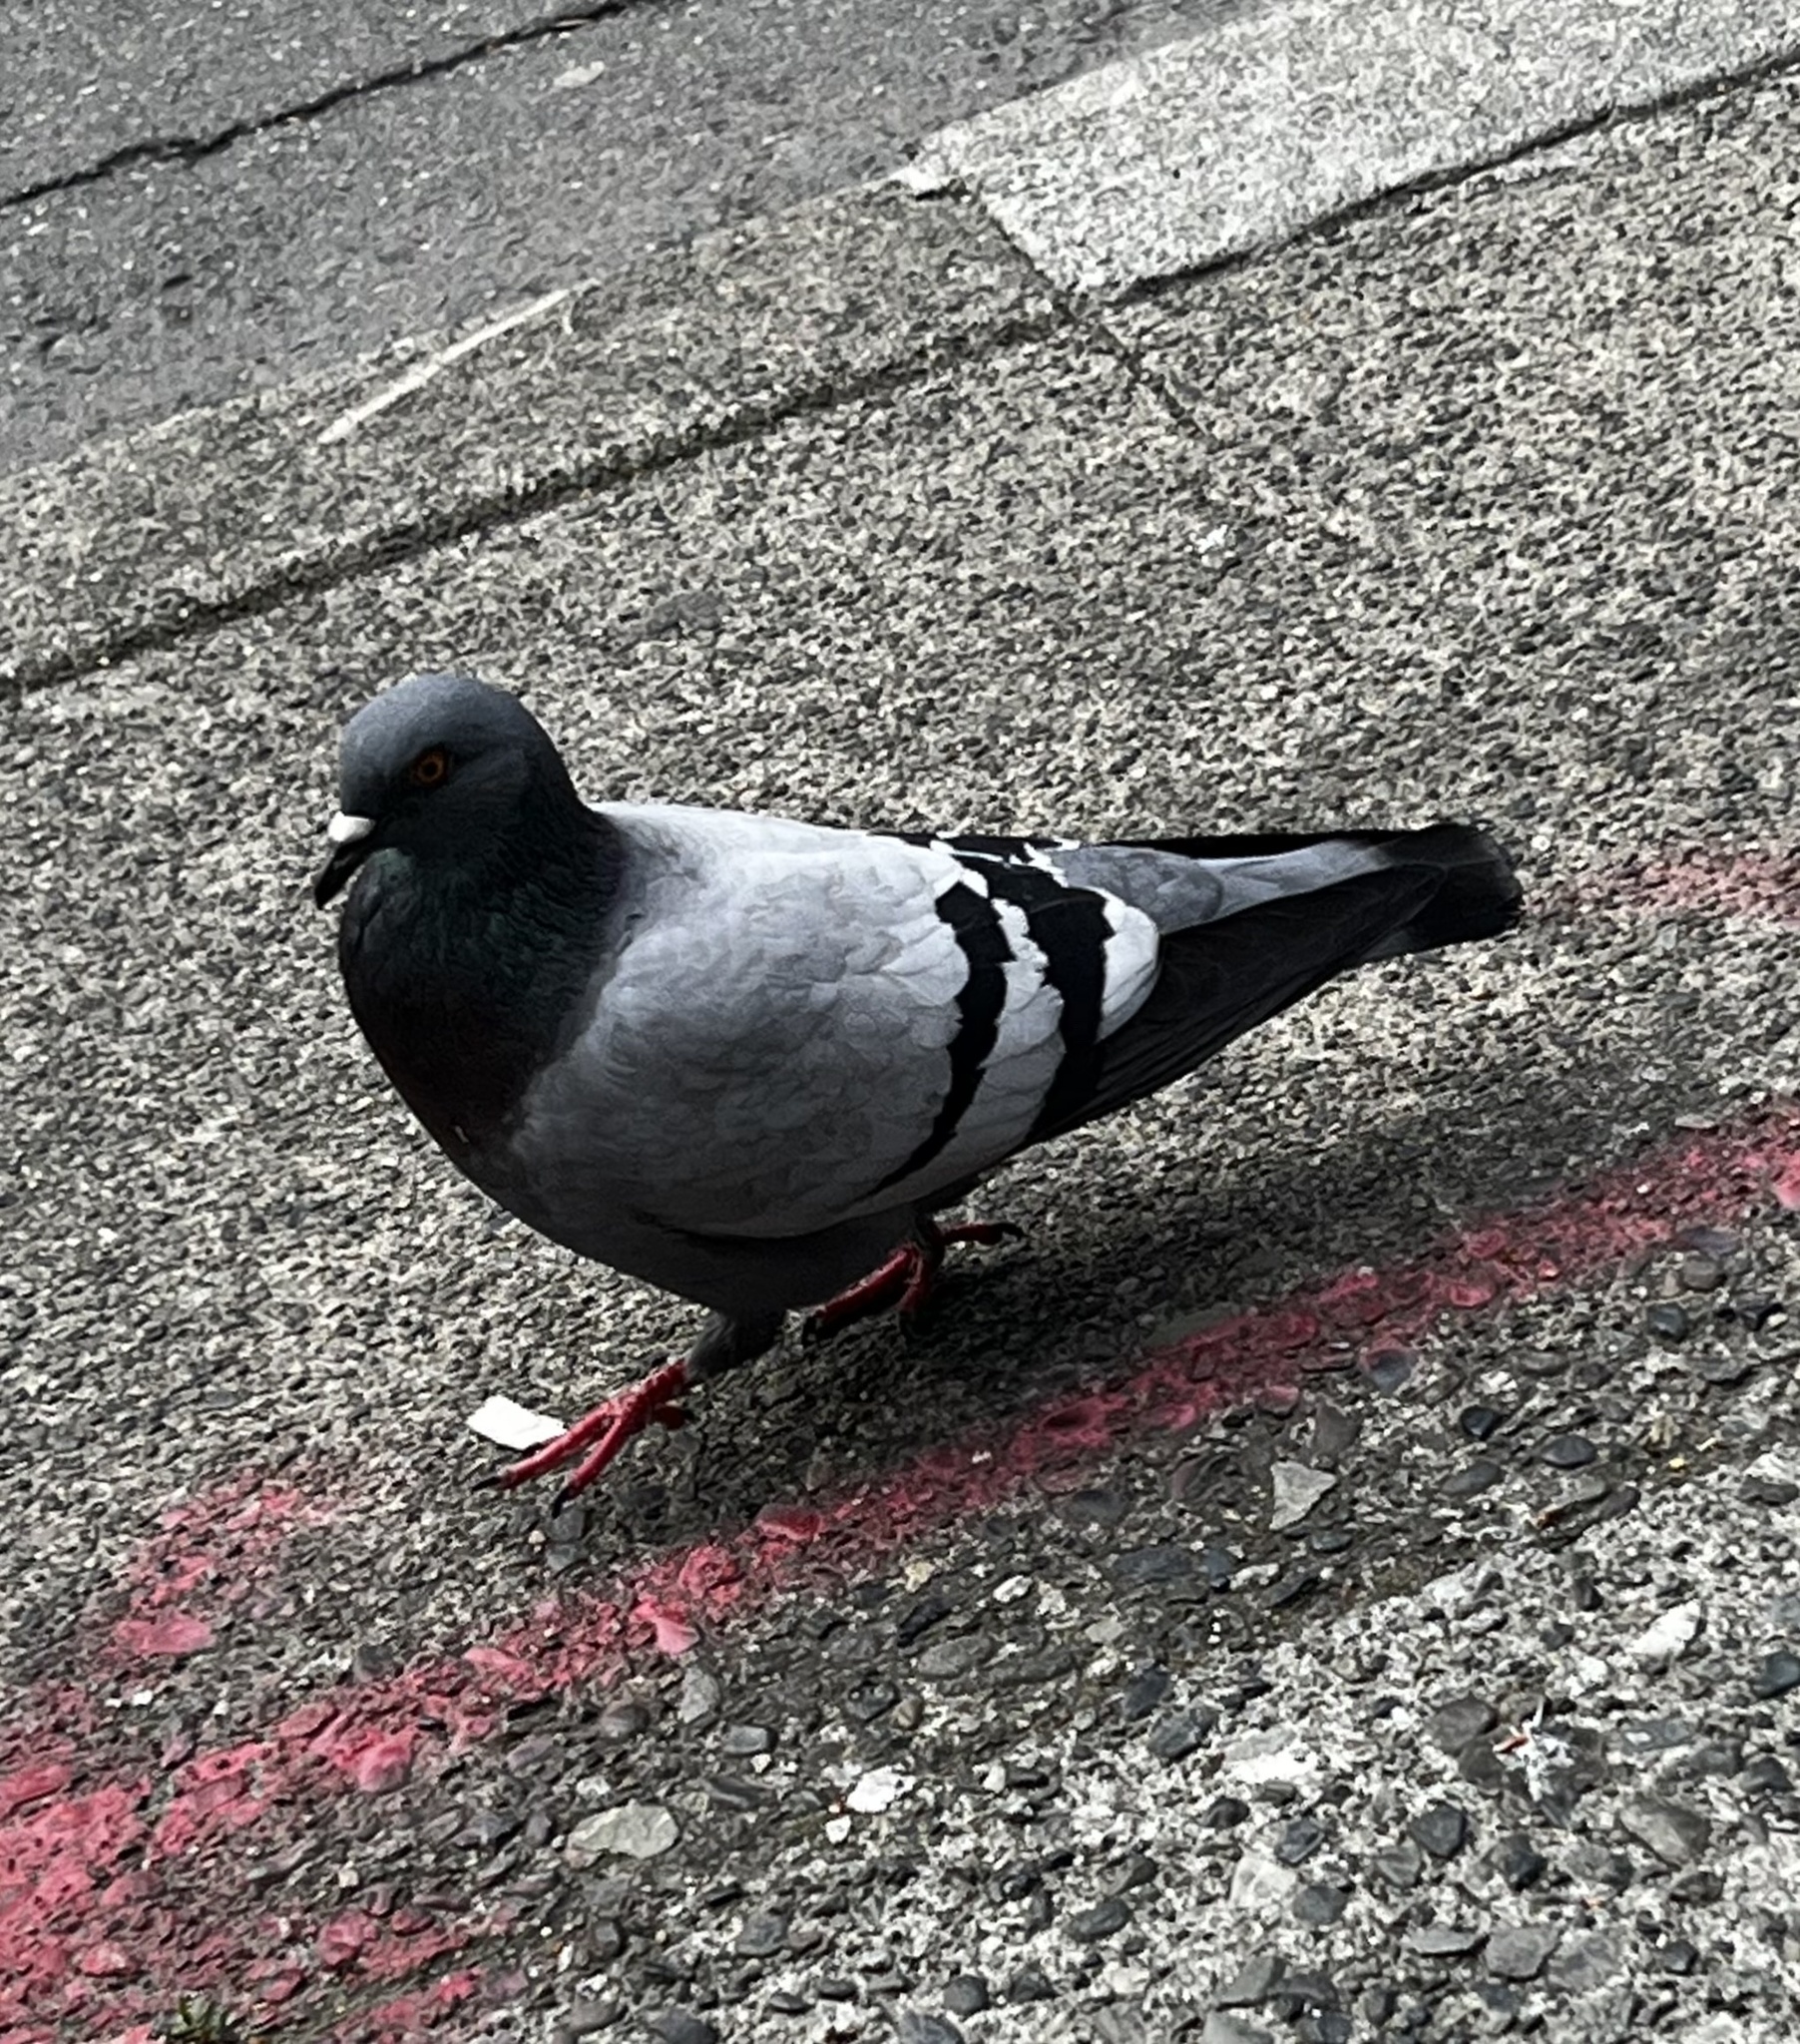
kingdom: Animalia
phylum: Chordata
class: Aves
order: Columbiformes
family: Columbidae
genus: Columba
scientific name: Columba livia
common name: Rock pigeon
